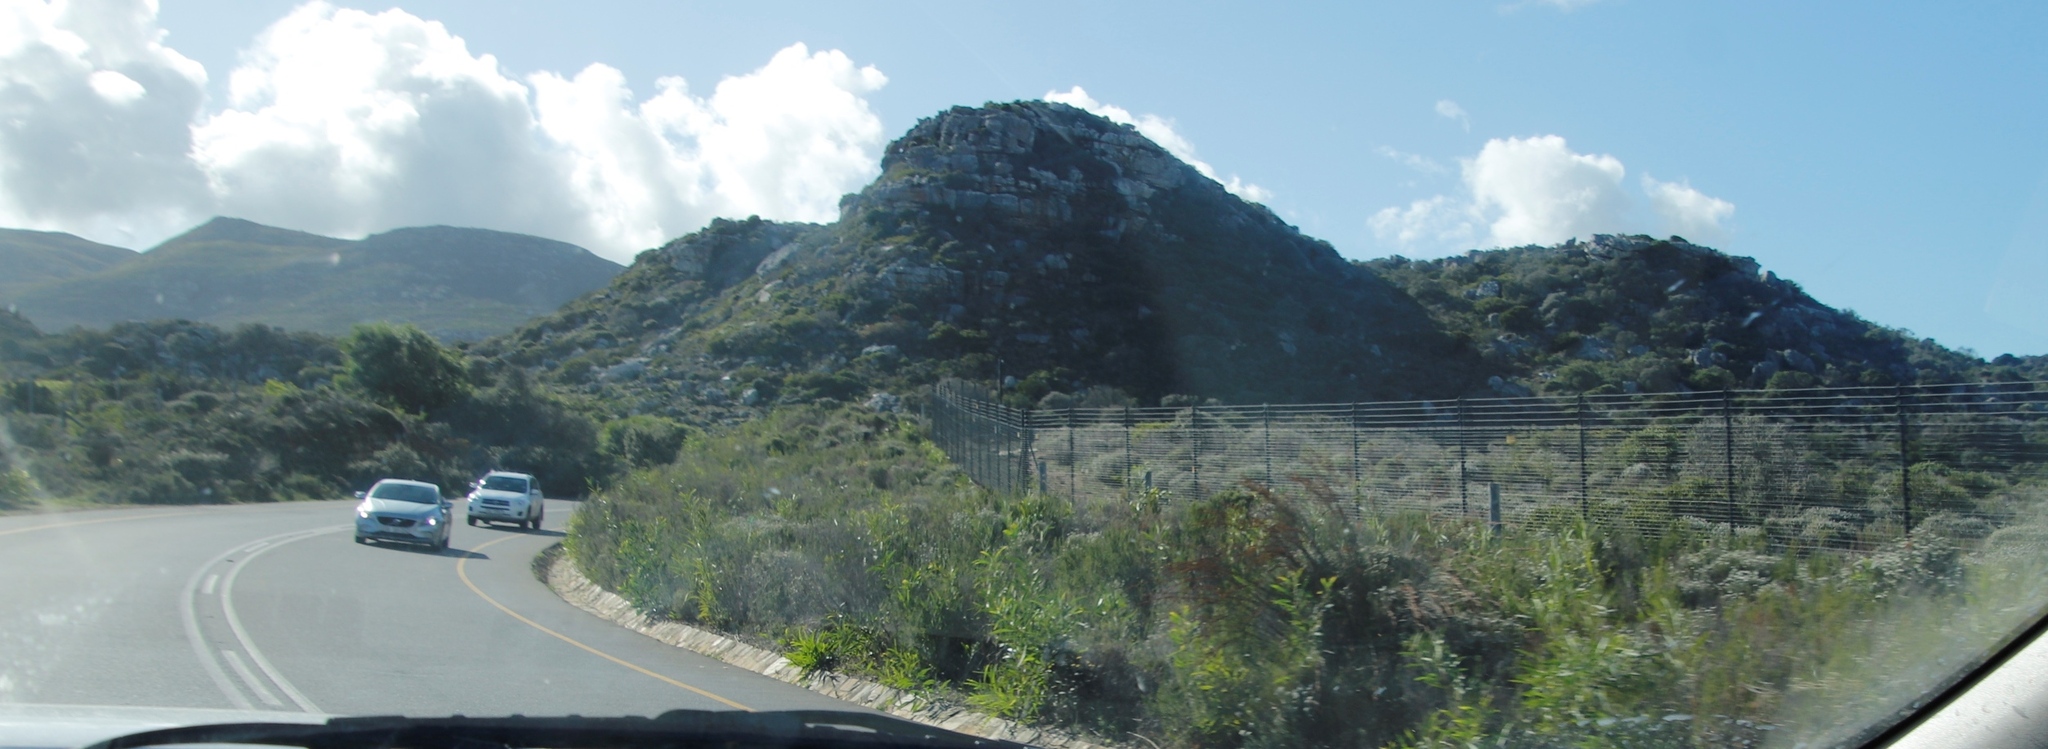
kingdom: Plantae
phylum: Tracheophyta
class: Liliopsida
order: Poales
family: Restionaceae
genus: Thamnochortus
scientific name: Thamnochortus insignis
